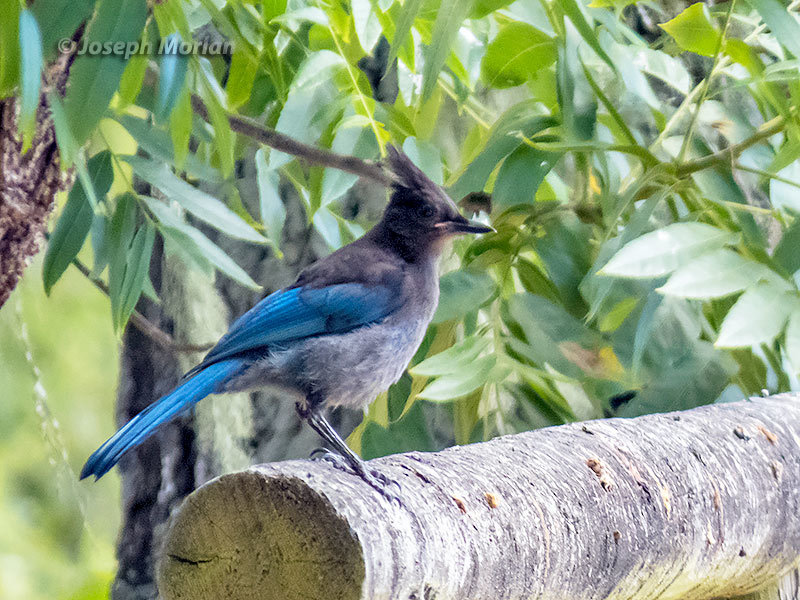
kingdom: Animalia
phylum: Chordata
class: Aves
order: Passeriformes
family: Corvidae
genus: Cyanocitta
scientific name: Cyanocitta stelleri
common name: Steller's jay
